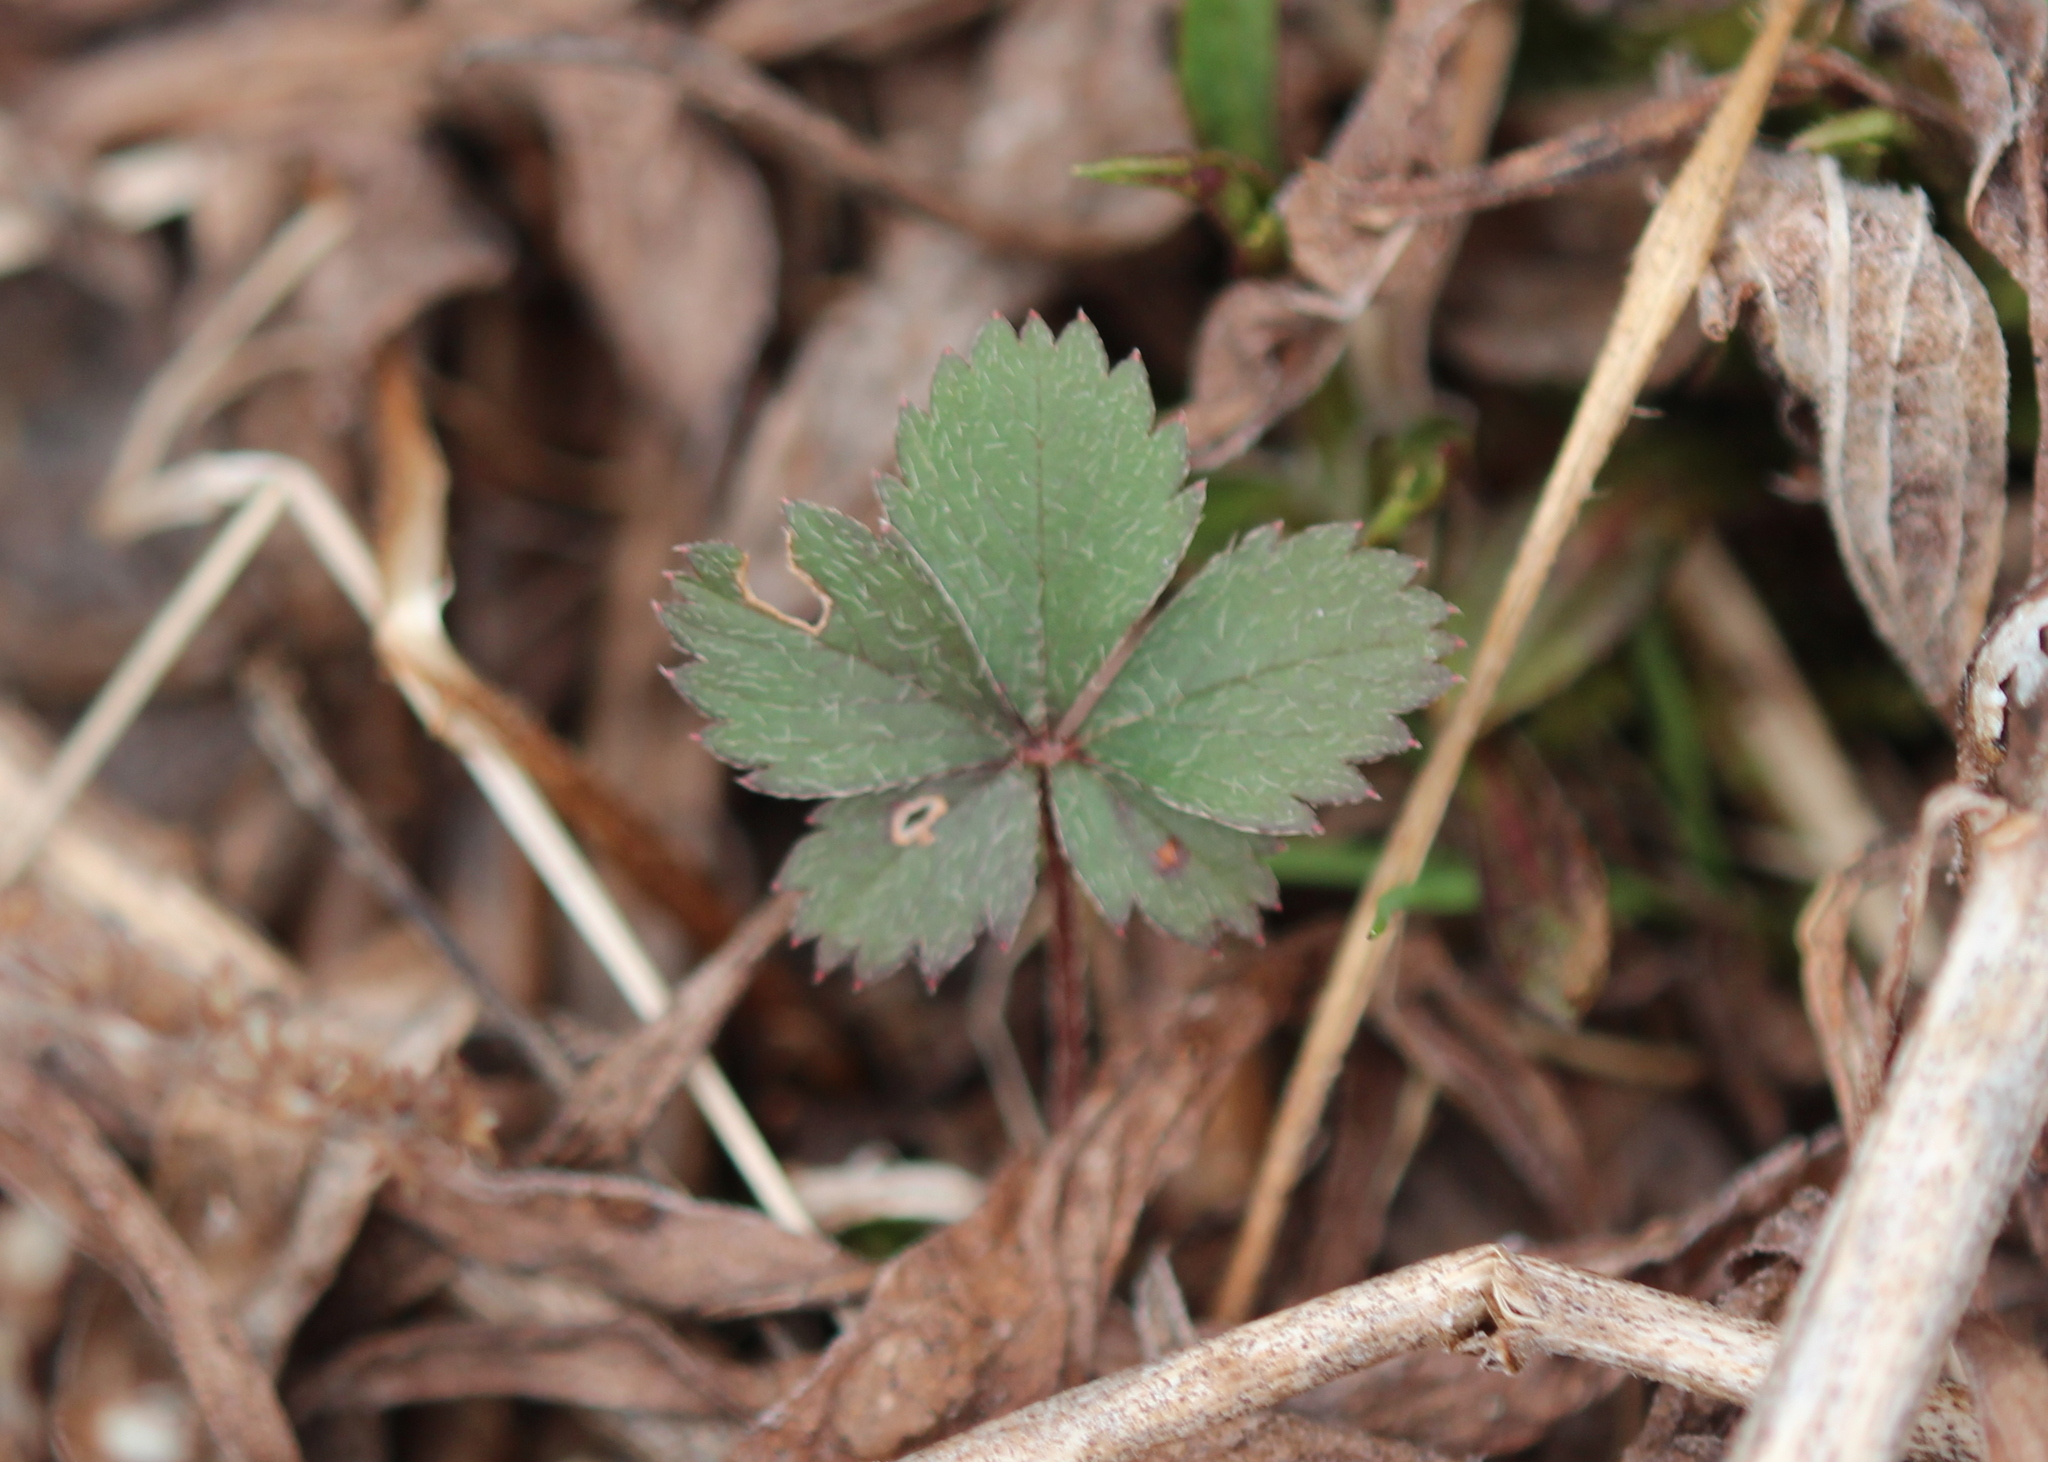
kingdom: Plantae
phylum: Tracheophyta
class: Magnoliopsida
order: Rosales
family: Rosaceae
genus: Potentilla
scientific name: Potentilla canadensis
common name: Canada cinquefoil
